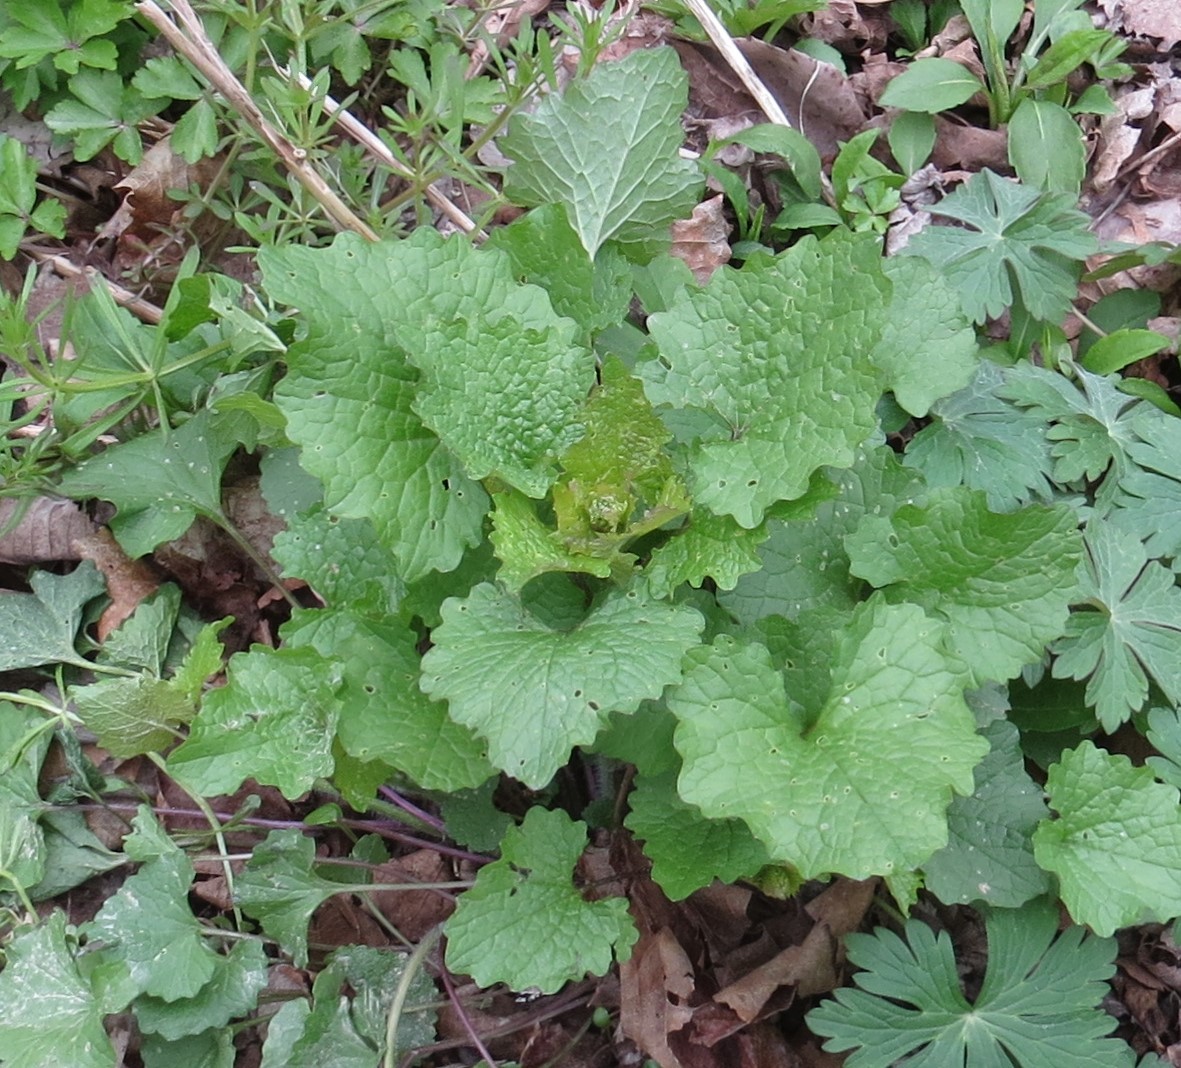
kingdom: Plantae
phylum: Tracheophyta
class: Magnoliopsida
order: Brassicales
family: Brassicaceae
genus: Alliaria
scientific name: Alliaria petiolata
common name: Garlic mustard
